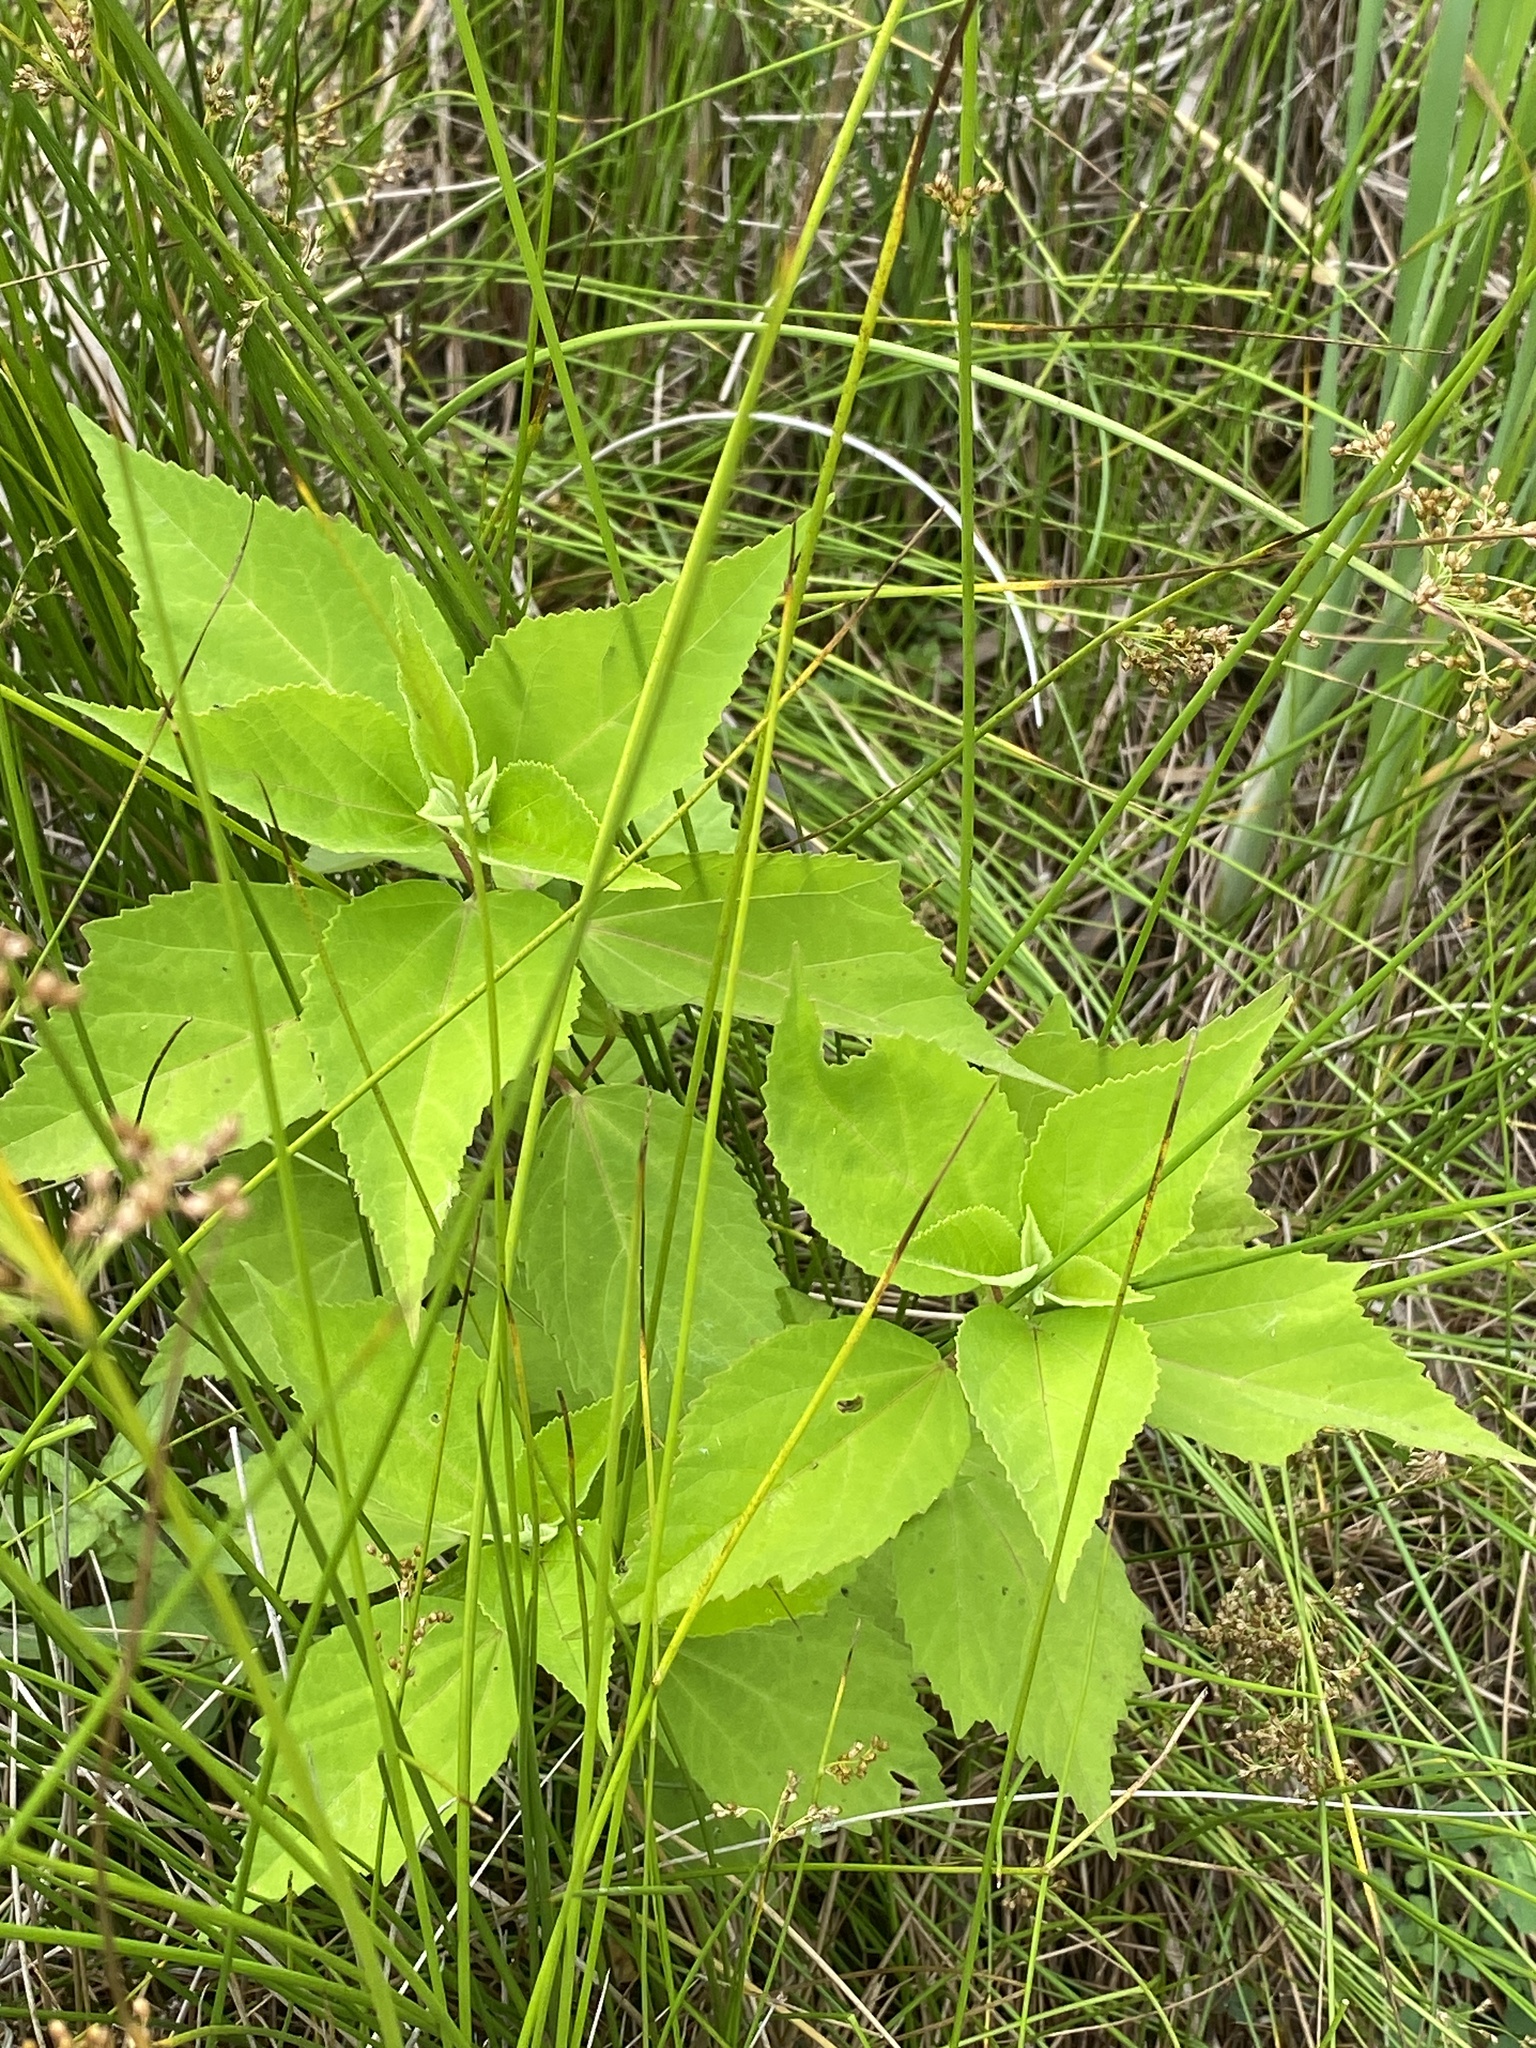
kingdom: Plantae
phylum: Tracheophyta
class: Magnoliopsida
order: Malvales
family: Malvaceae
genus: Hibiscus
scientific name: Hibiscus moscheutos
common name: Common rose-mallow
